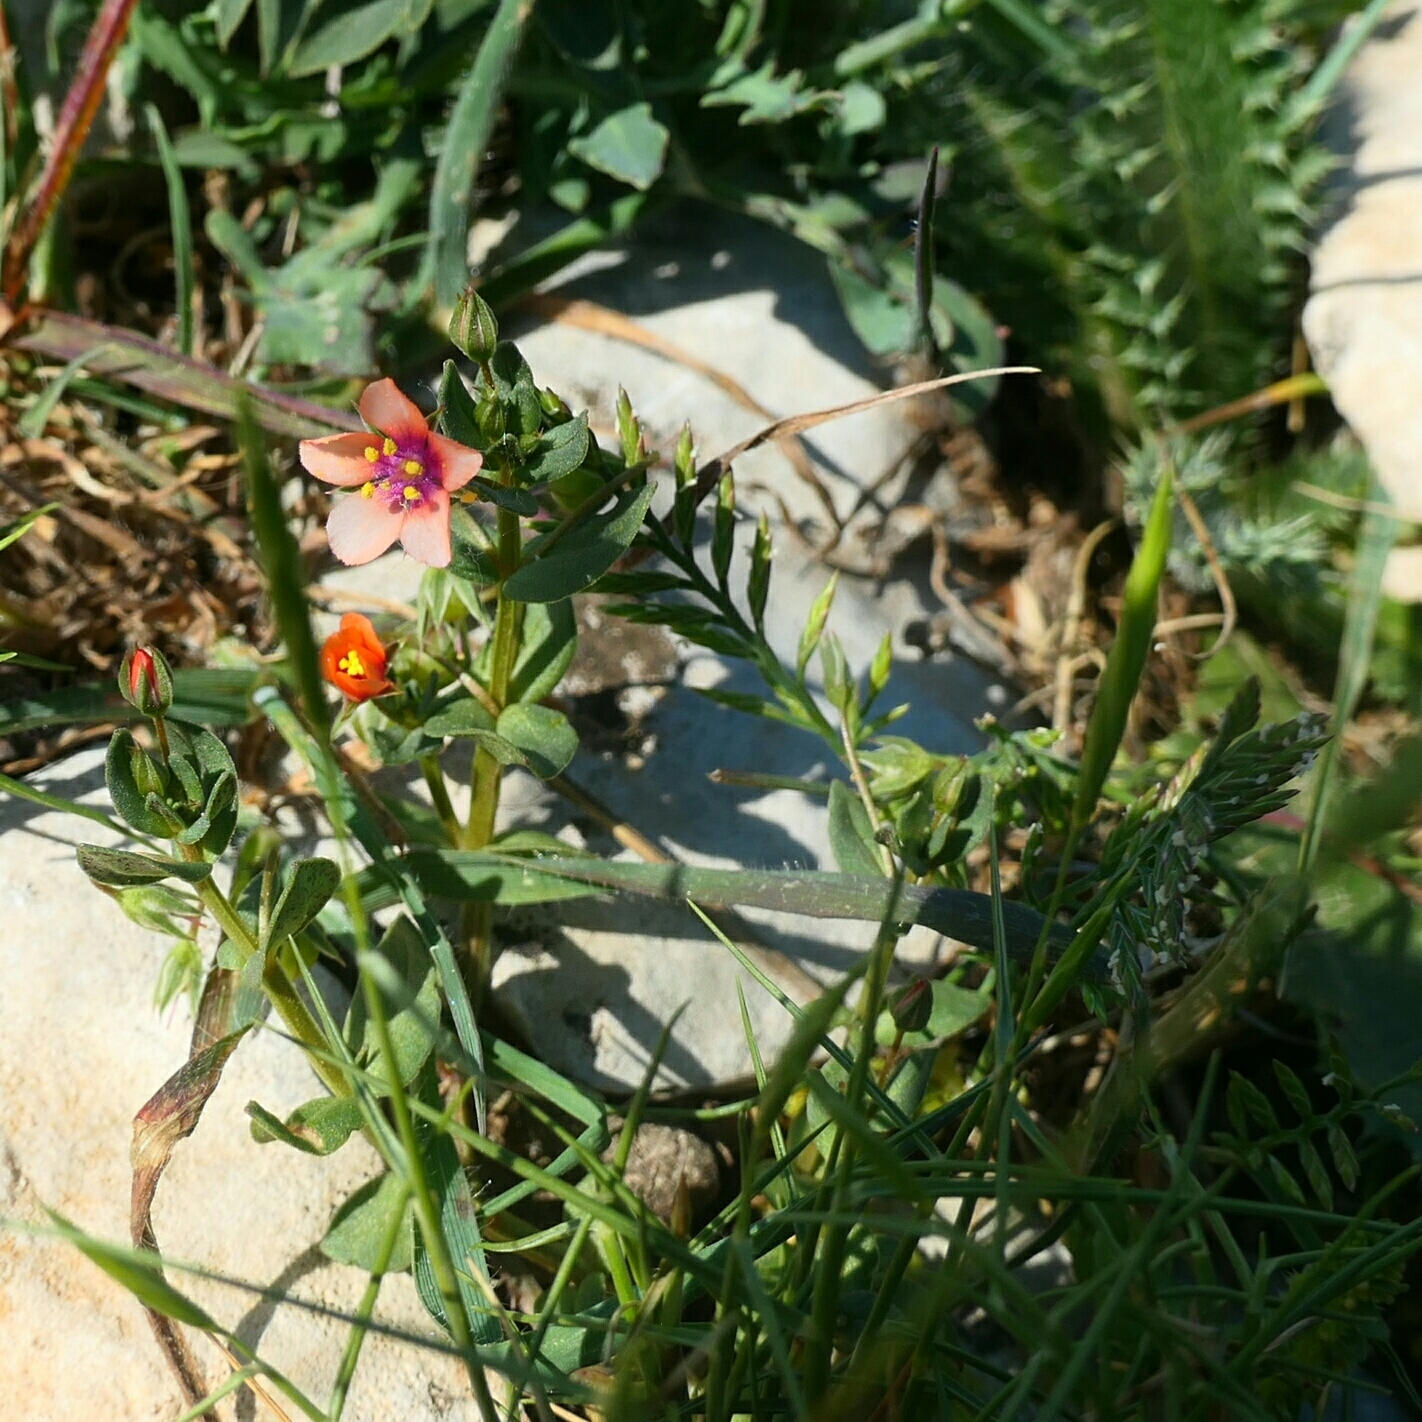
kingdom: Plantae
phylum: Tracheophyta
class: Magnoliopsida
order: Ericales
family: Primulaceae
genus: Lysimachia
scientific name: Lysimachia arvensis
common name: Scarlet pimpernel
